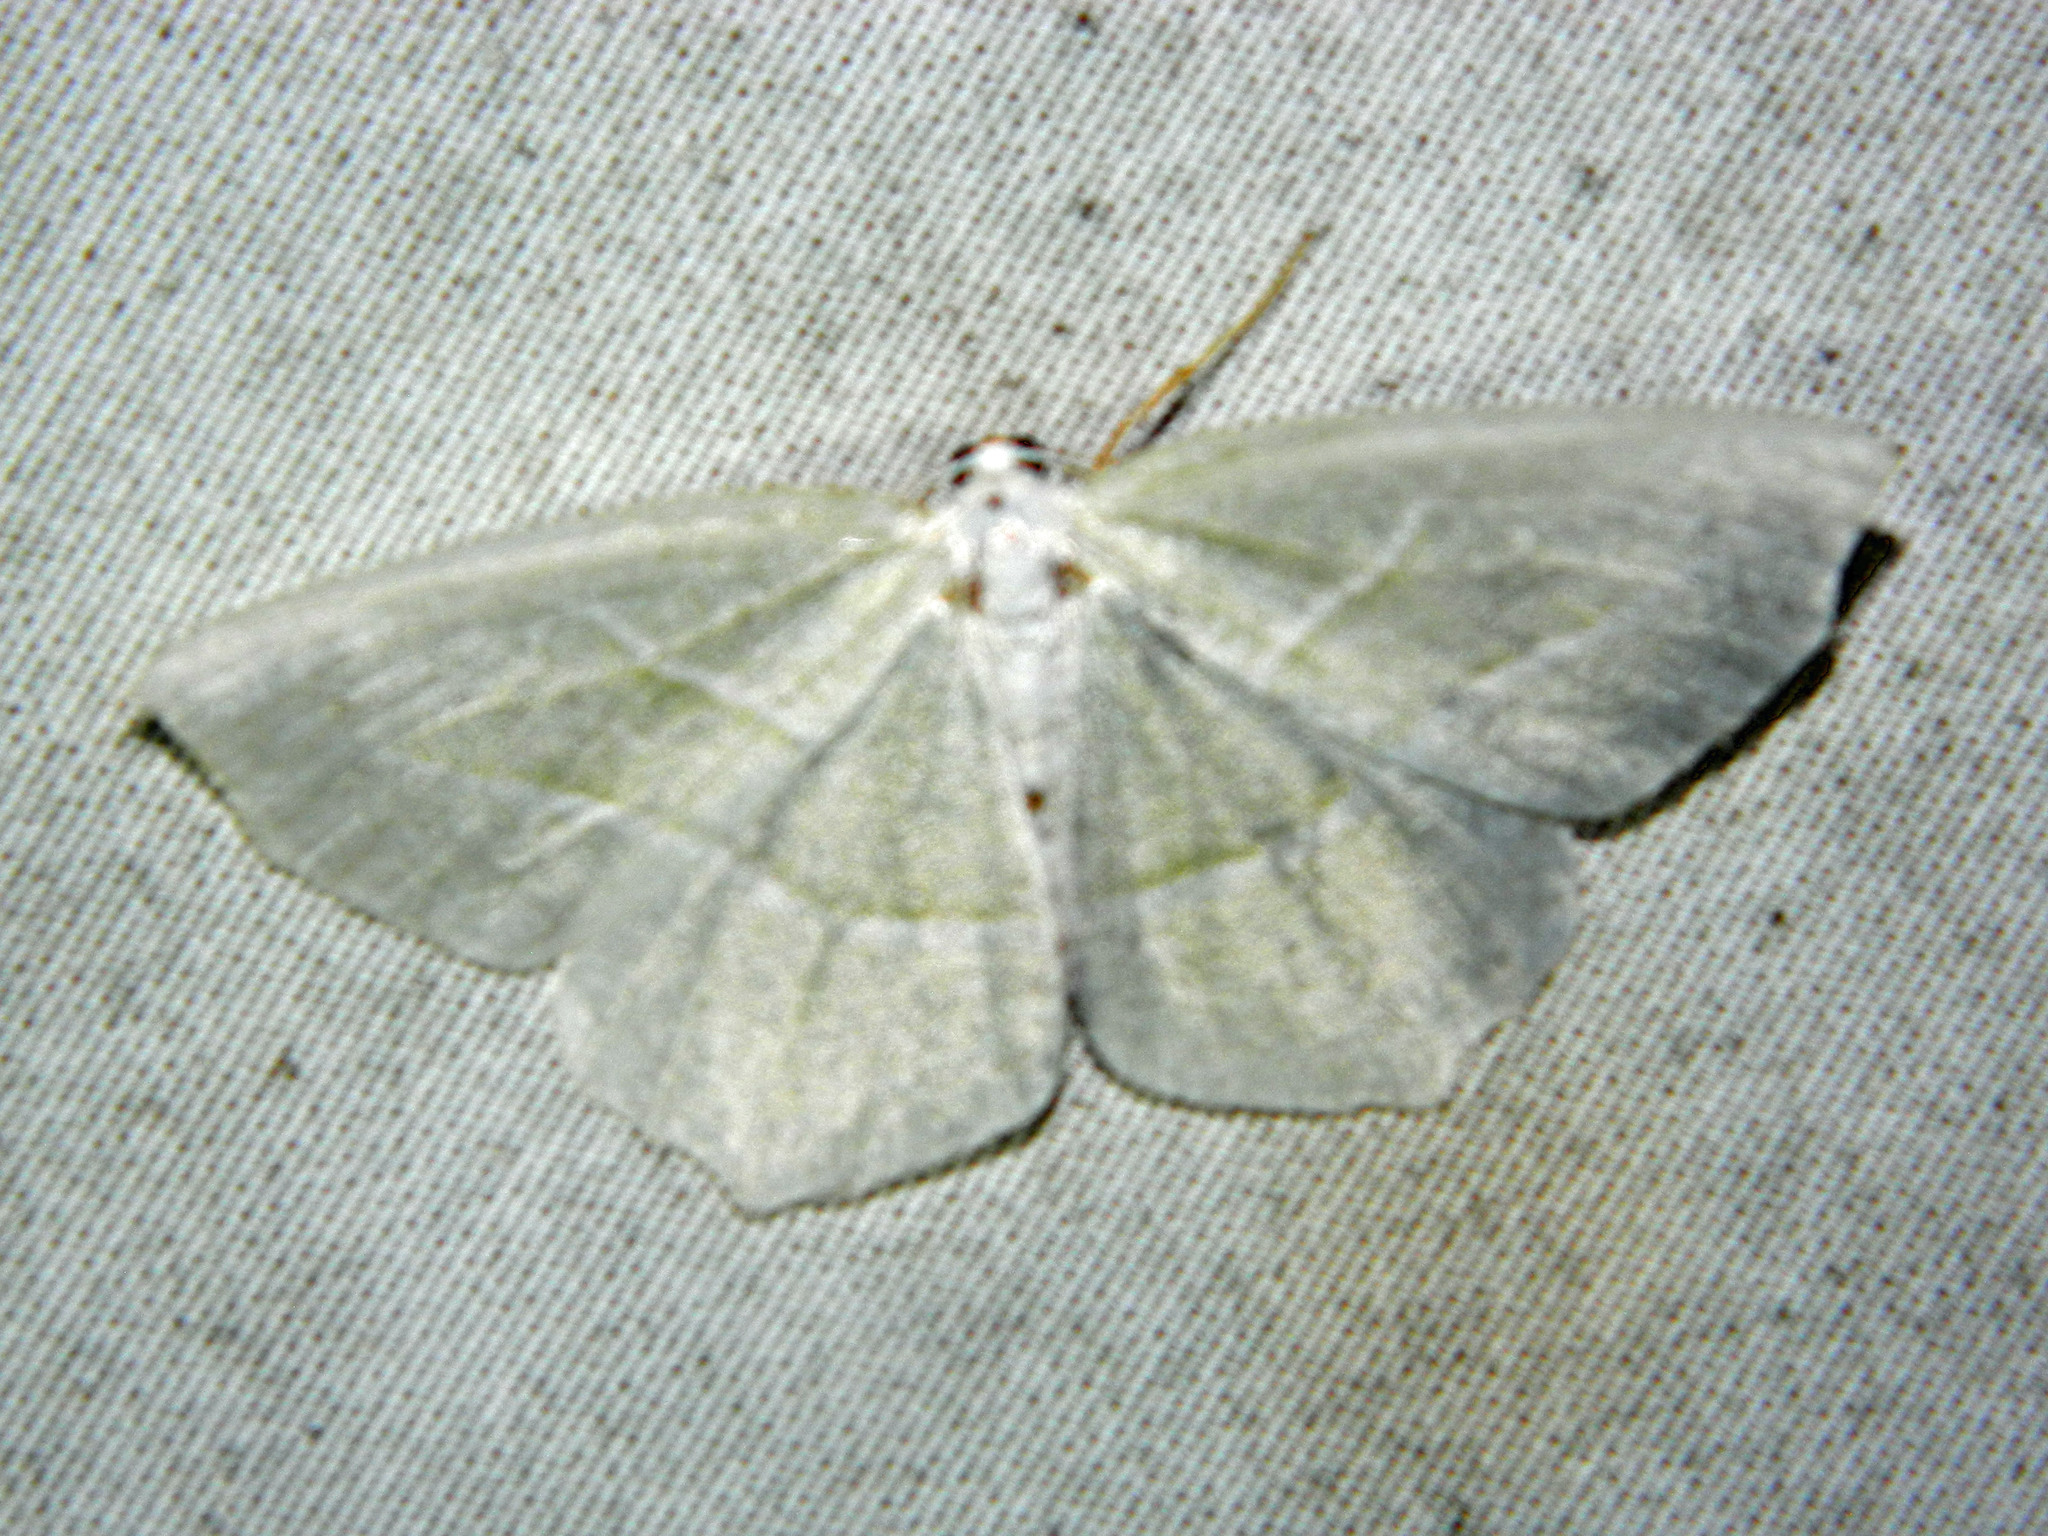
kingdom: Animalia
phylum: Arthropoda
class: Insecta
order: Lepidoptera
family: Geometridae
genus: Campaea
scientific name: Campaea perlata
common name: Fringed looper
